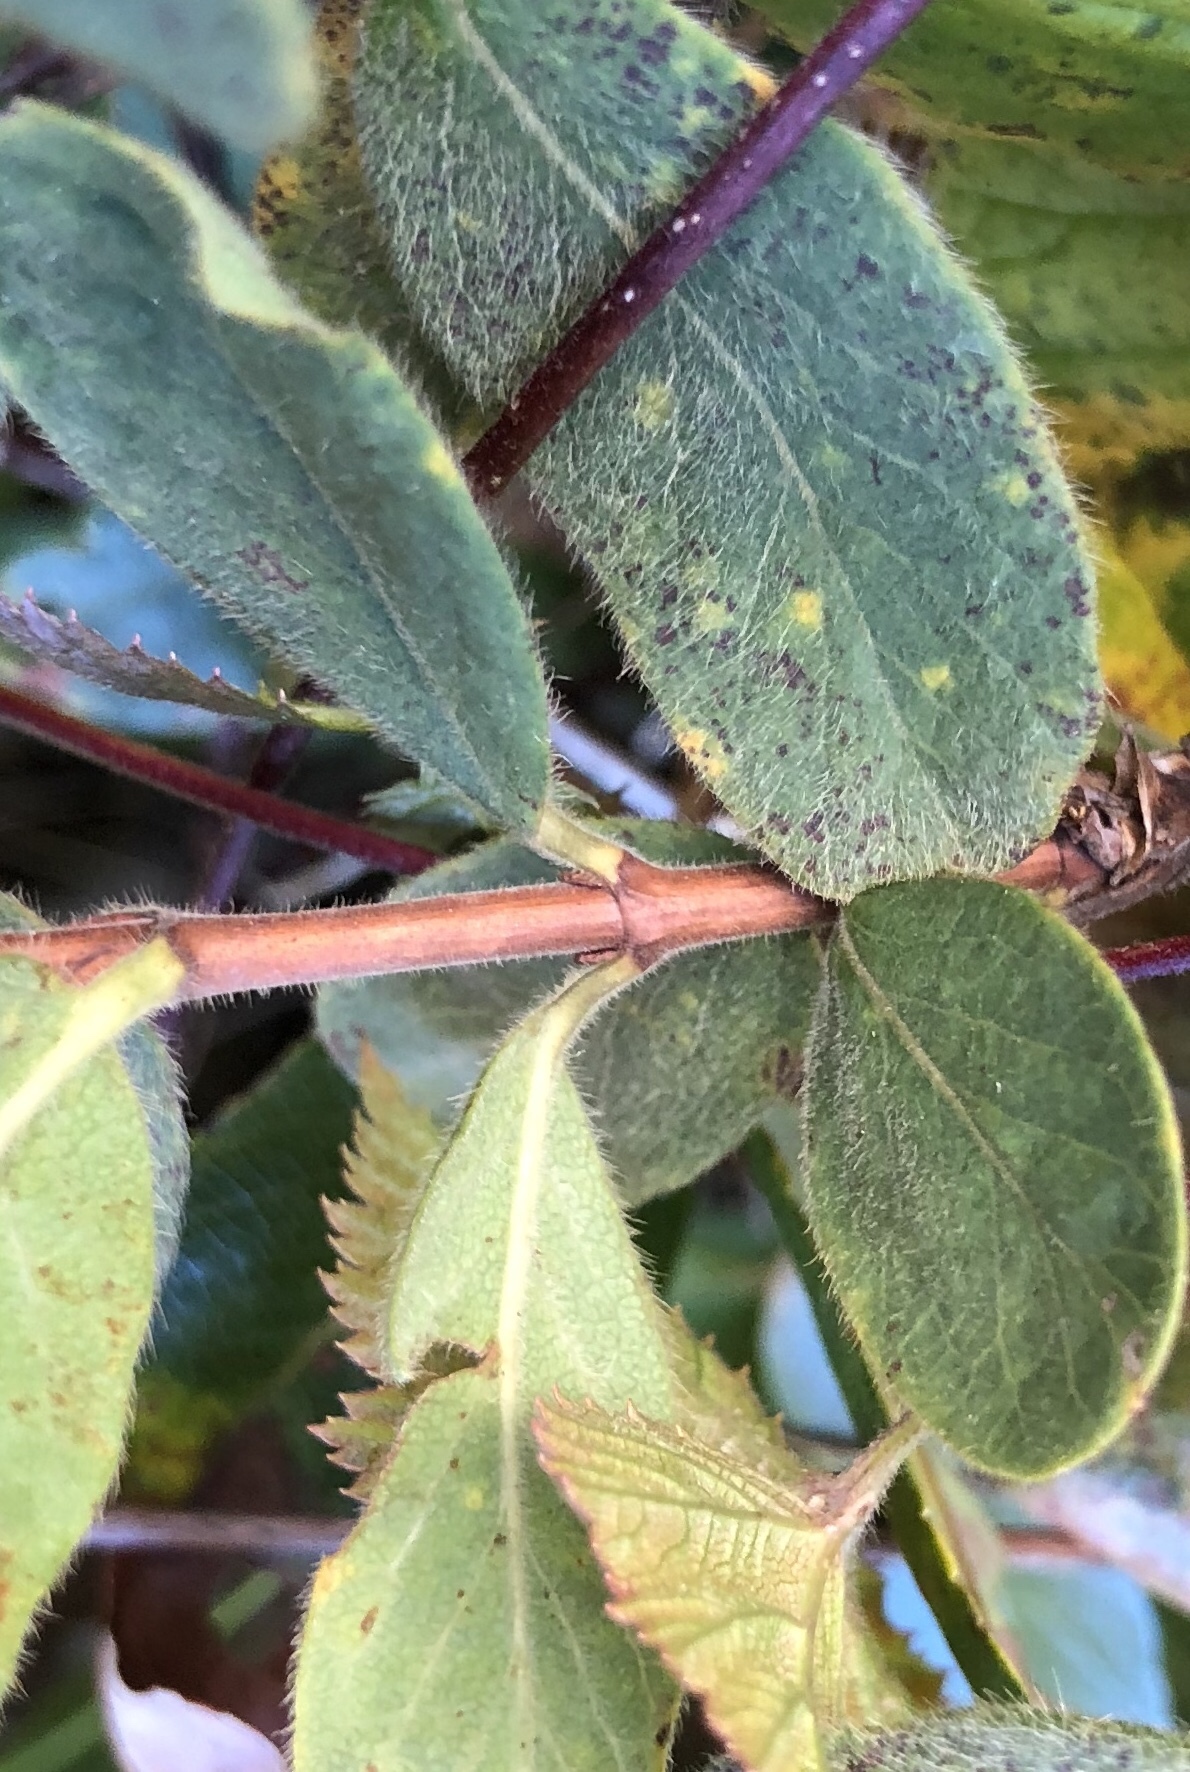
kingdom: Plantae
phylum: Tracheophyta
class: Magnoliopsida
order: Dipsacales
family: Caprifoliaceae
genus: Lonicera
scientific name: Lonicera villosa
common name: Mountain fly-honeysuckle
